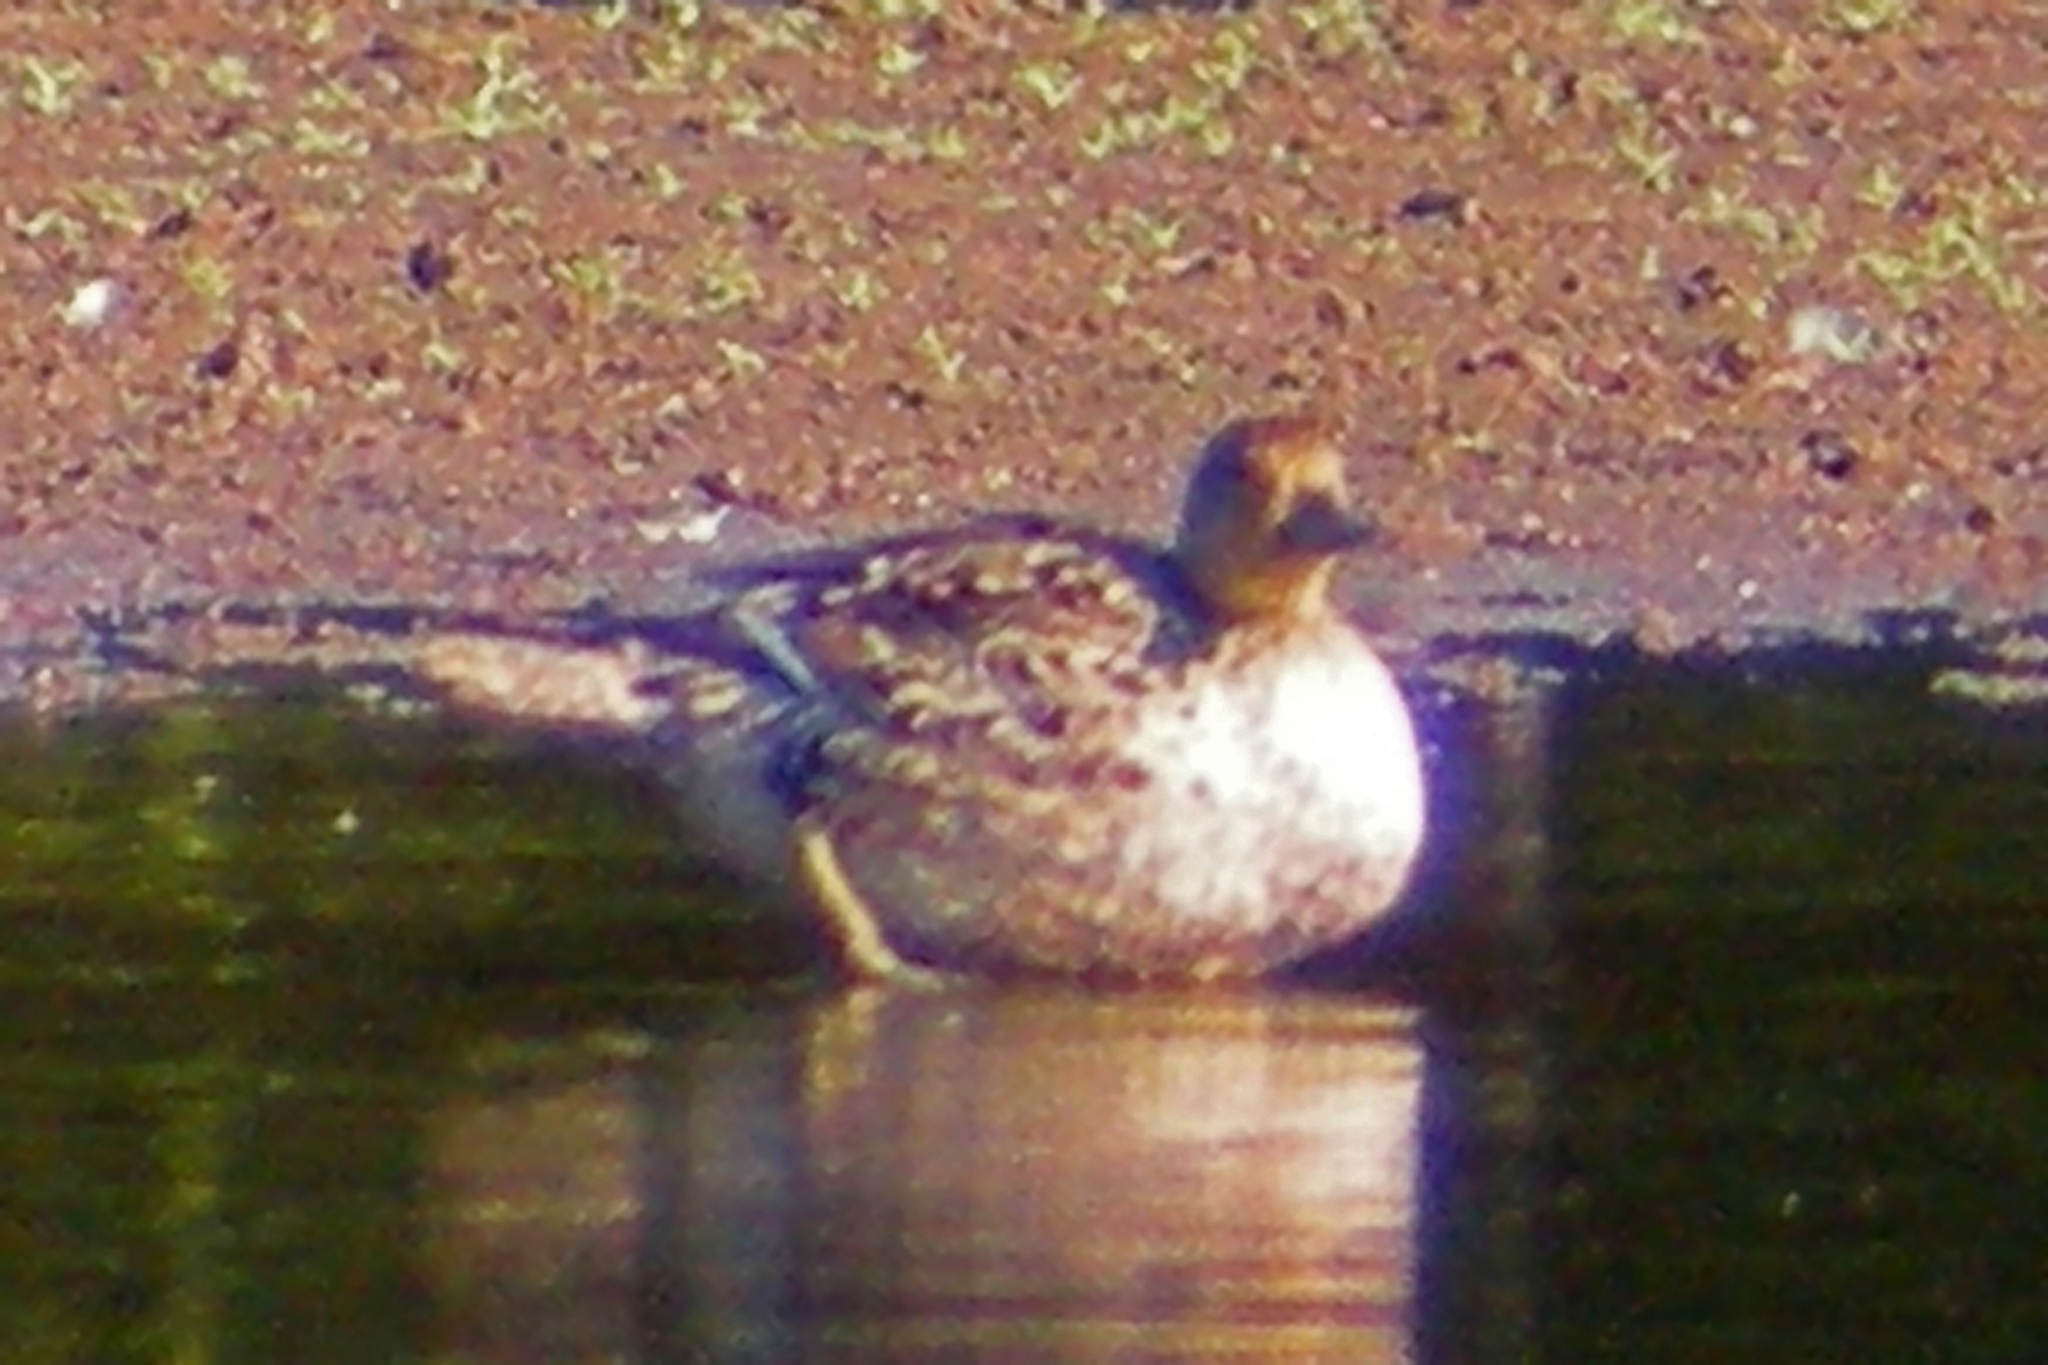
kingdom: Animalia
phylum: Chordata
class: Aves
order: Anseriformes
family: Anatidae
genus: Anas
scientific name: Anas acuta
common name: Northern pintail
